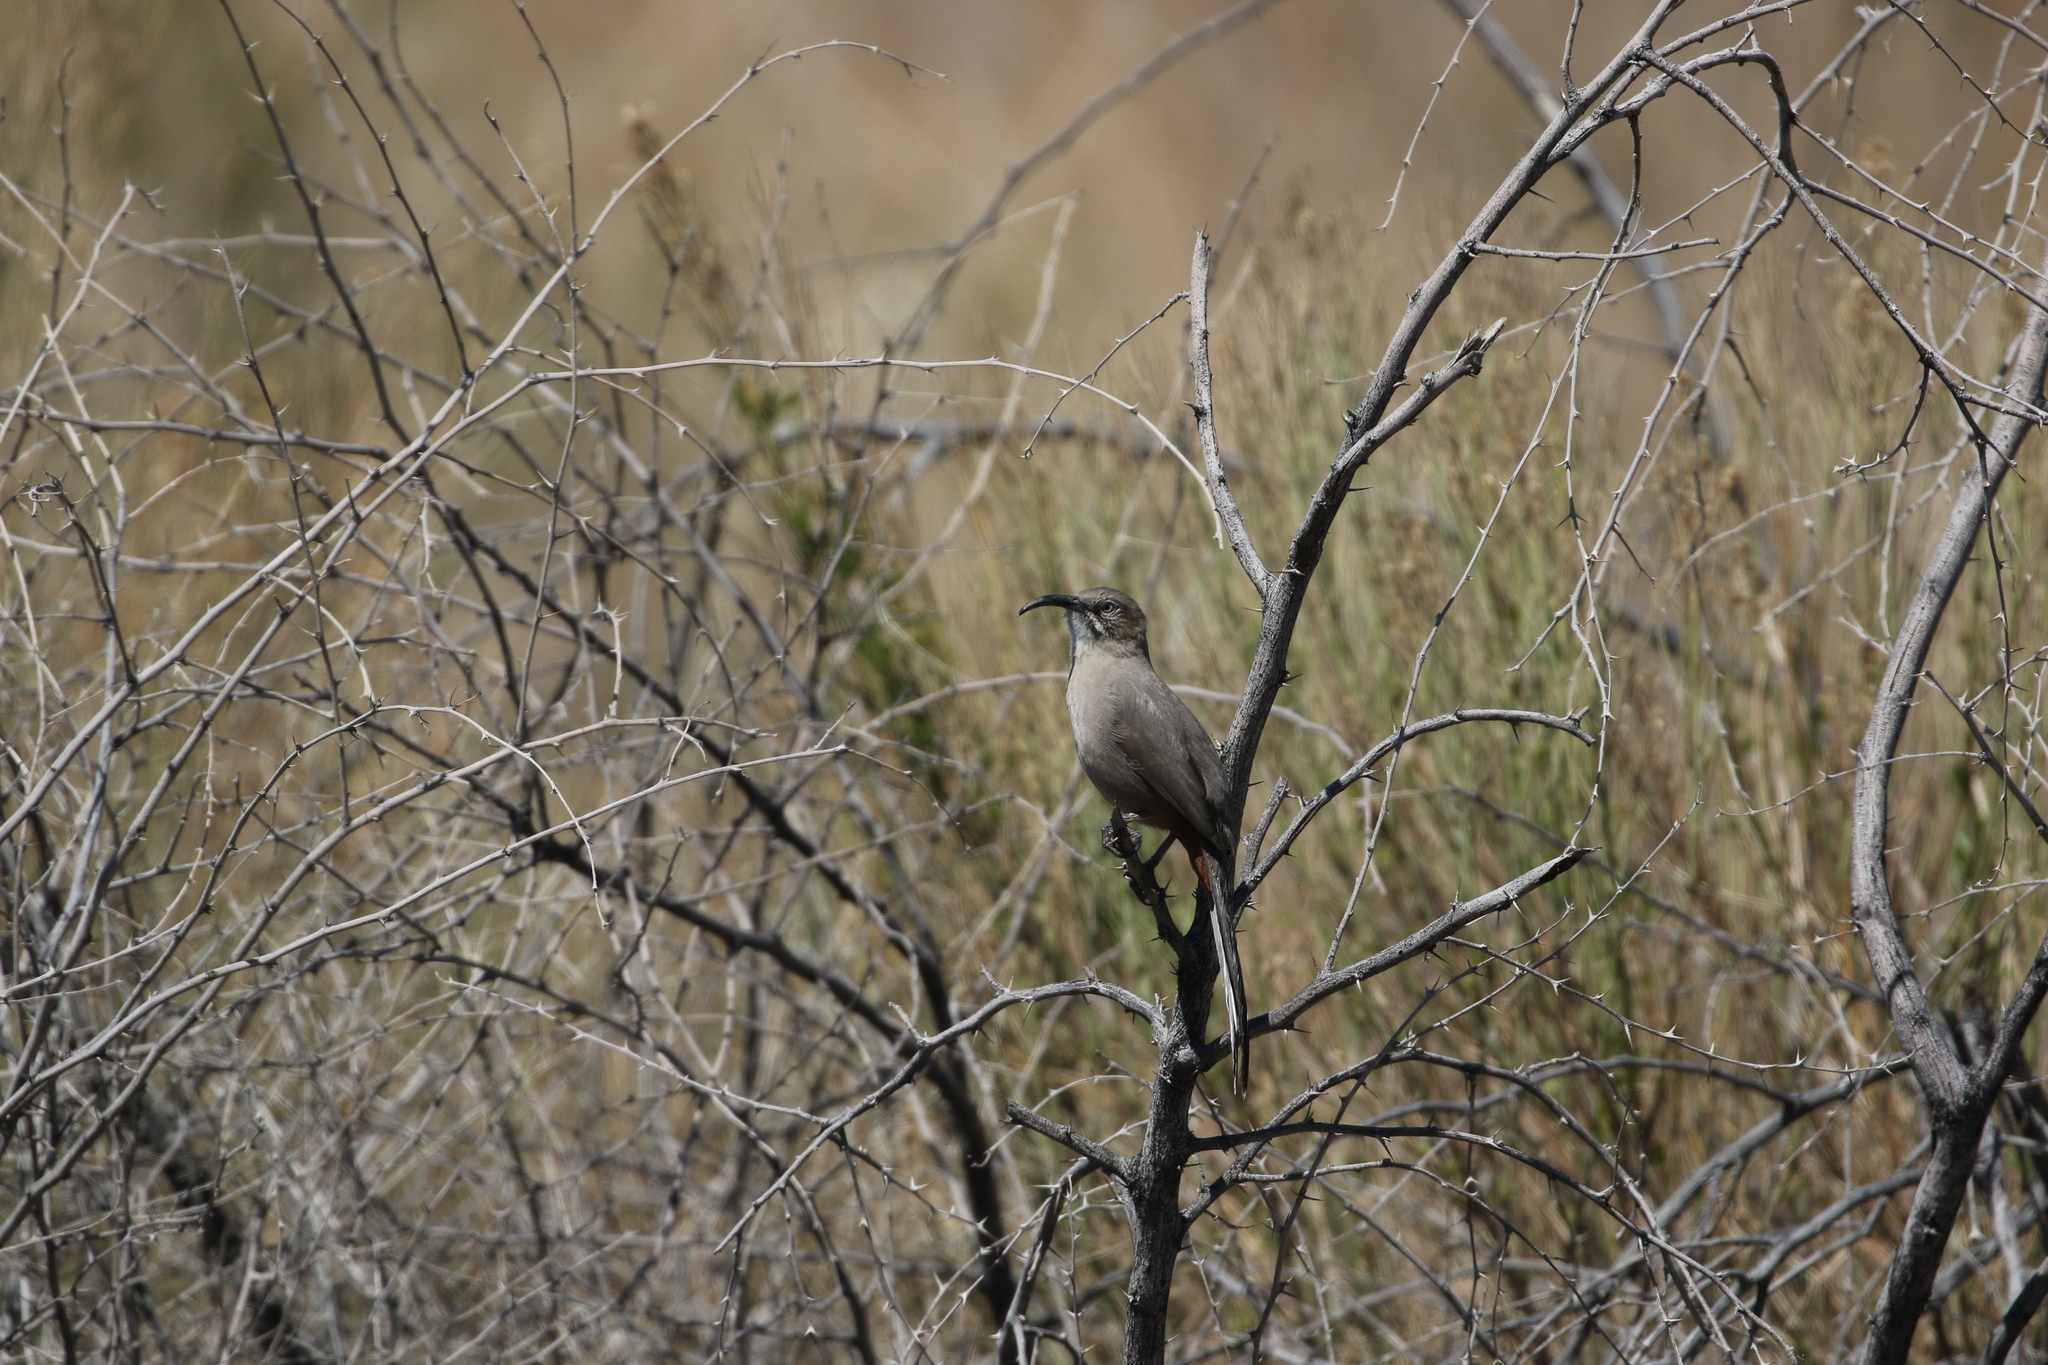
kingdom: Animalia
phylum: Chordata
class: Aves
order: Passeriformes
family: Mimidae
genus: Toxostoma
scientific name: Toxostoma crissale
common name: Crissal thrasher
